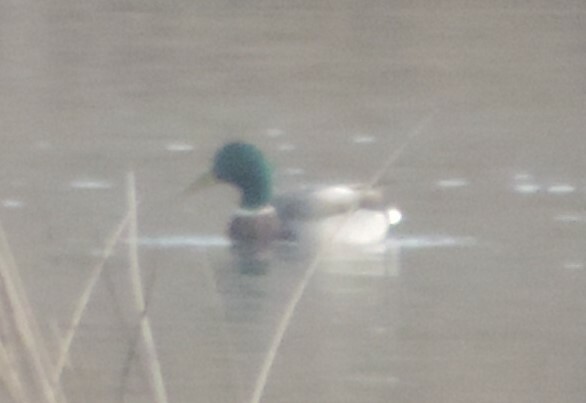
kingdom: Animalia
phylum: Chordata
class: Aves
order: Anseriformes
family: Anatidae
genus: Anas
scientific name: Anas platyrhynchos
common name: Mallard
